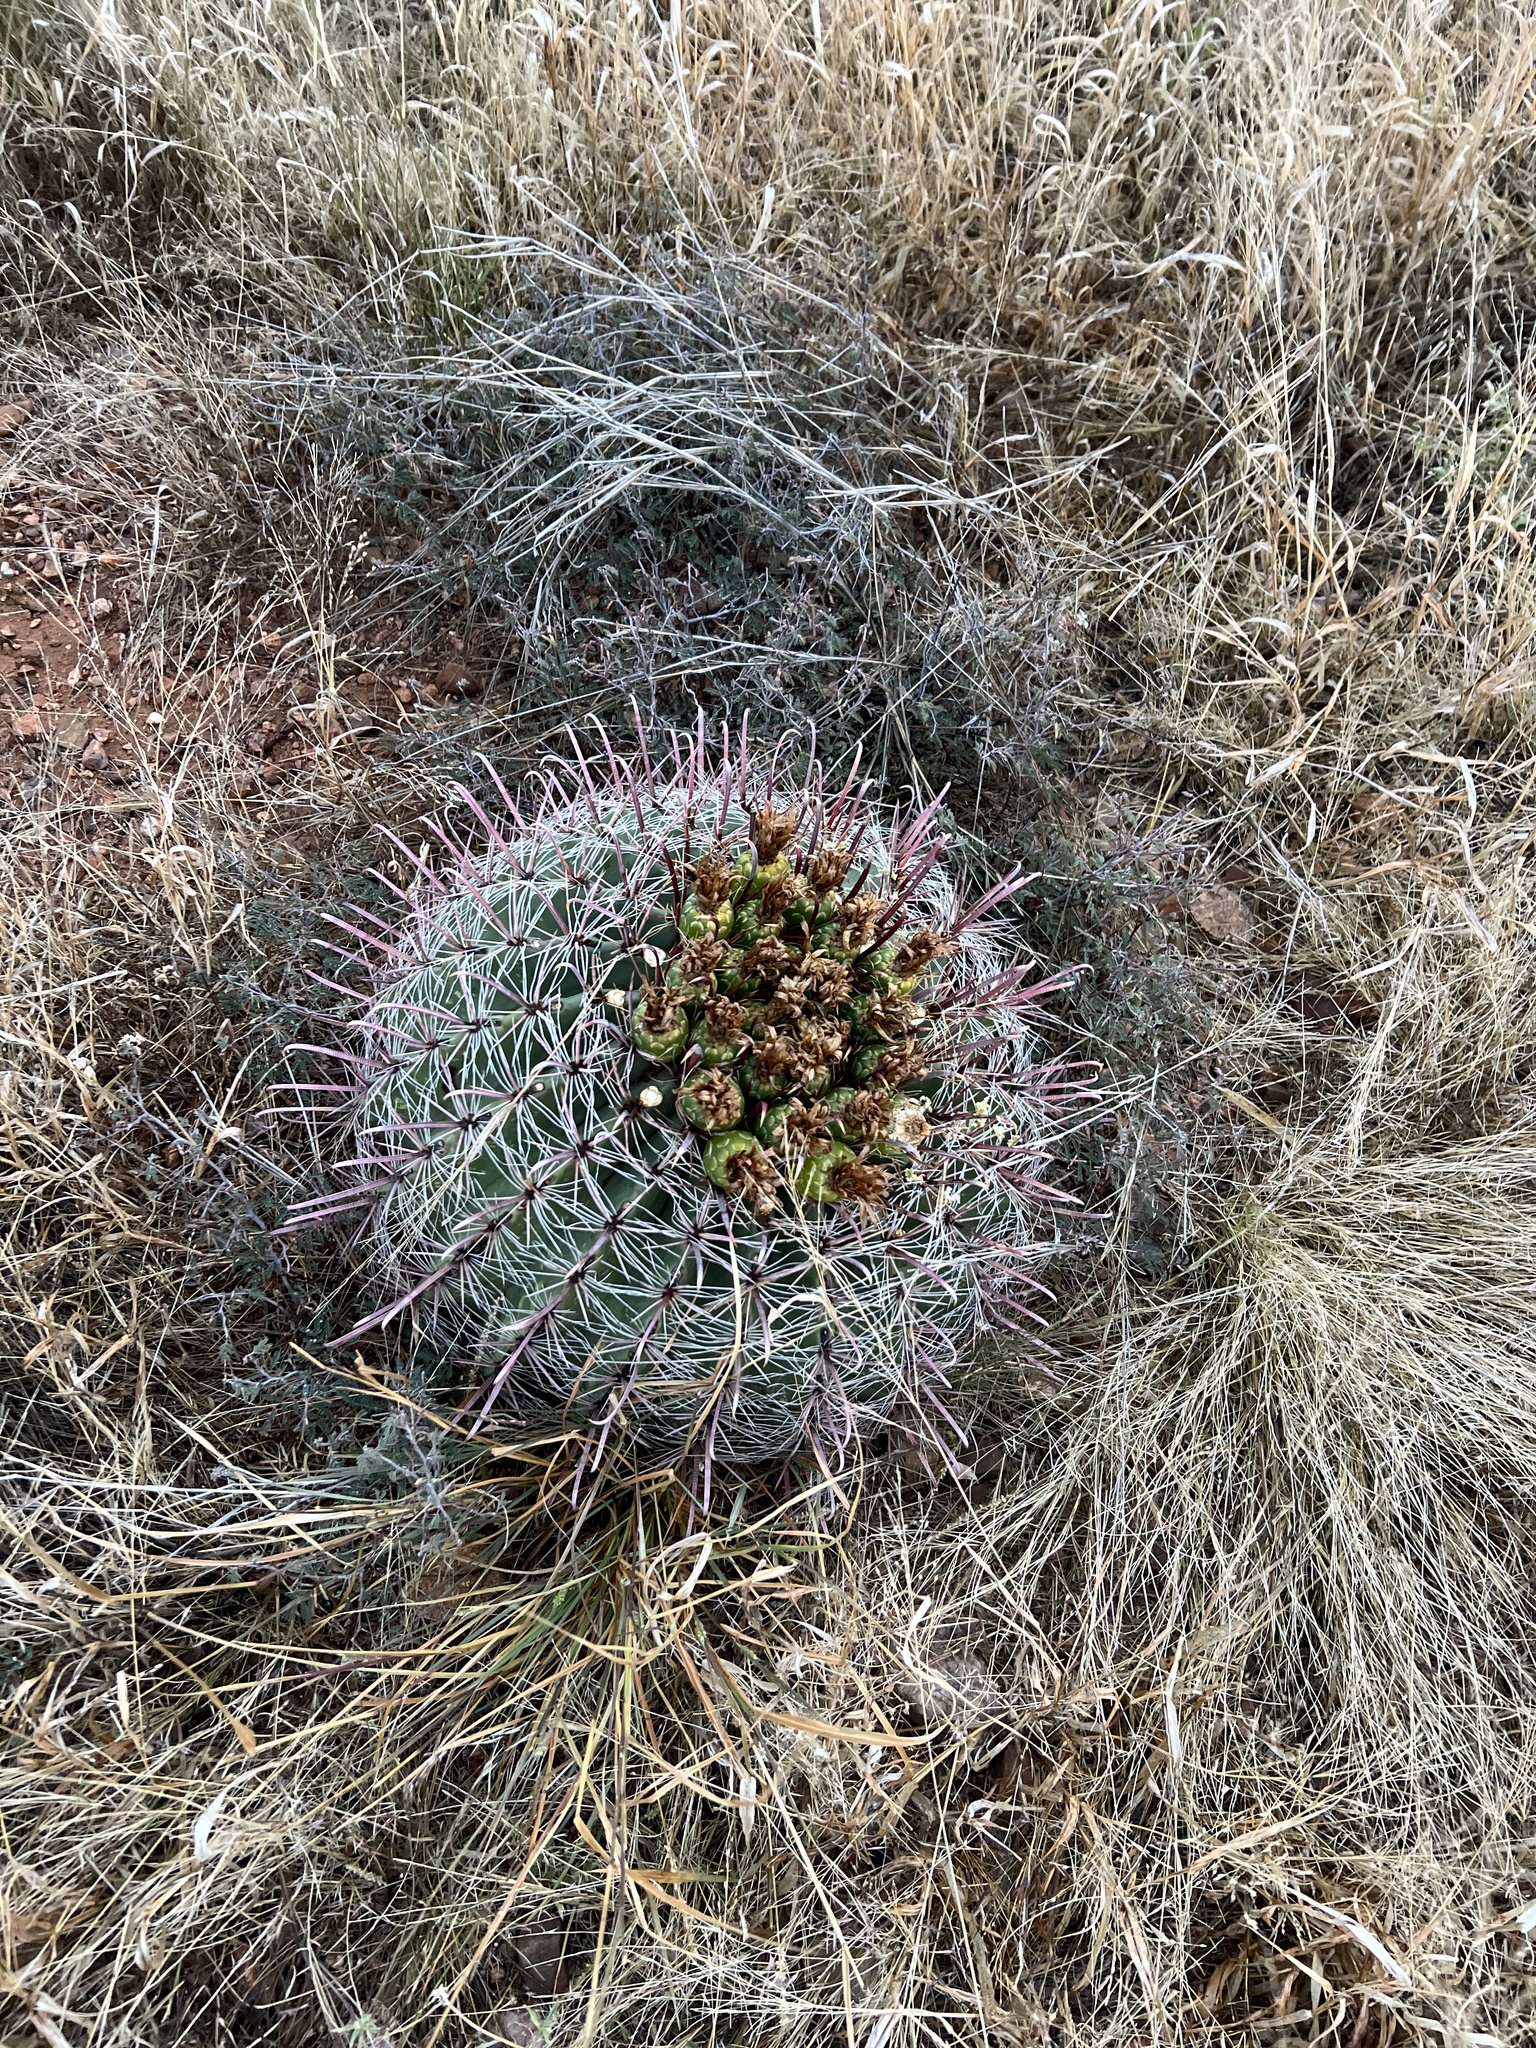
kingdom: Plantae
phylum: Tracheophyta
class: Magnoliopsida
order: Caryophyllales
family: Cactaceae
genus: Ferocactus
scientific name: Ferocactus wislizeni
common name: Candy barrel cactus
